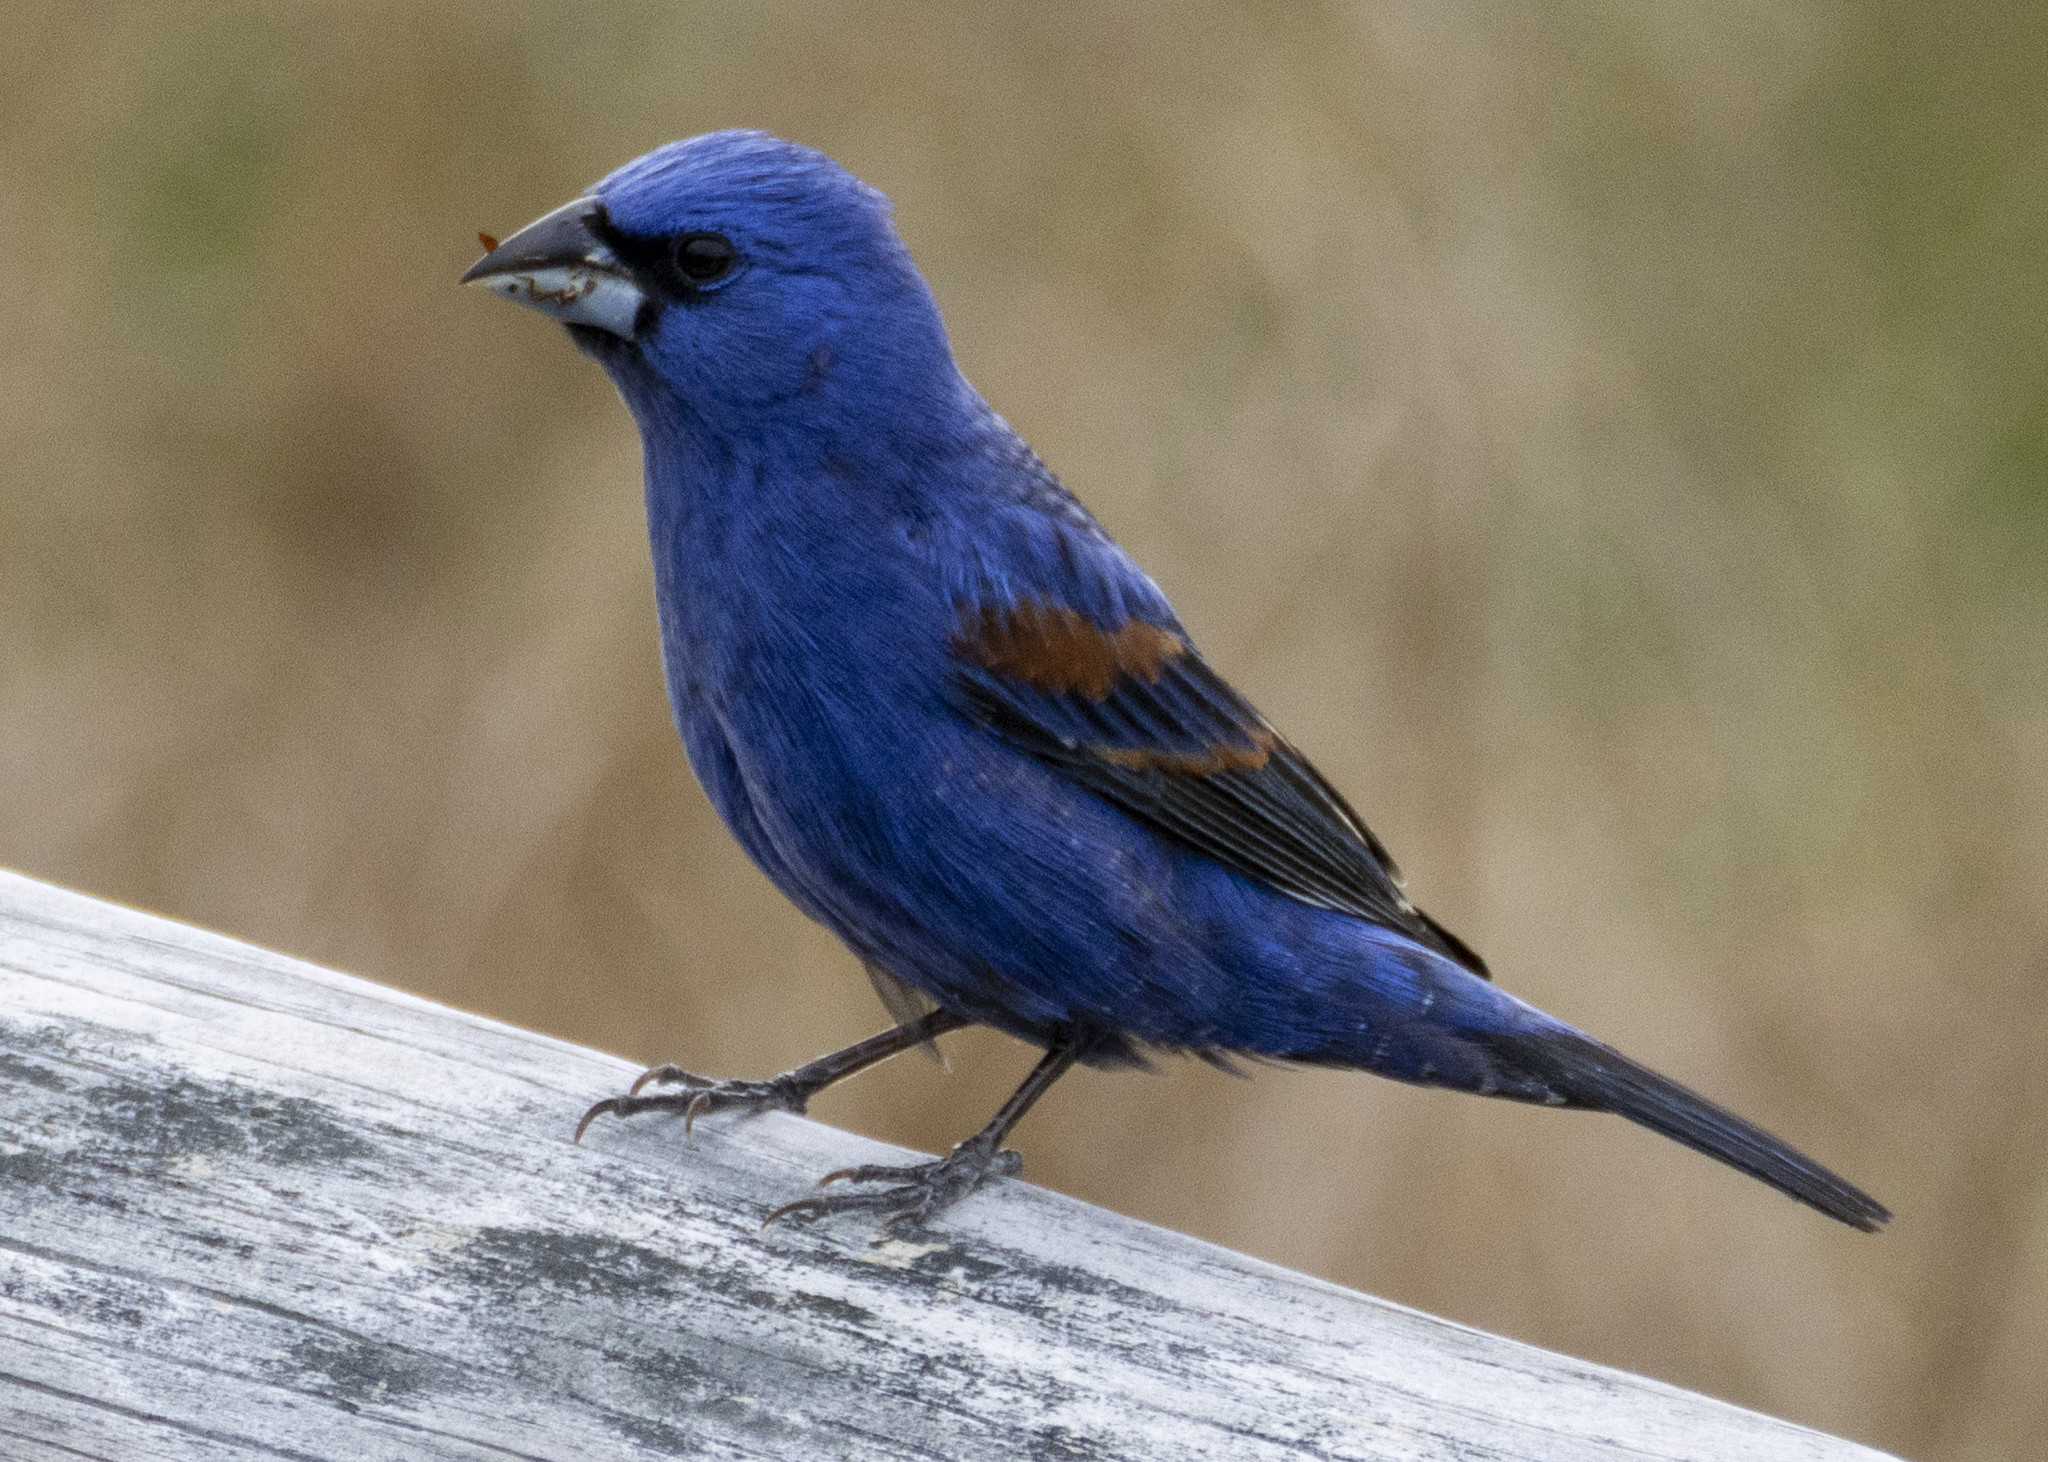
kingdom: Animalia
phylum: Chordata
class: Aves
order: Passeriformes
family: Cardinalidae
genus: Passerina
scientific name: Passerina caerulea
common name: Blue grosbeak
